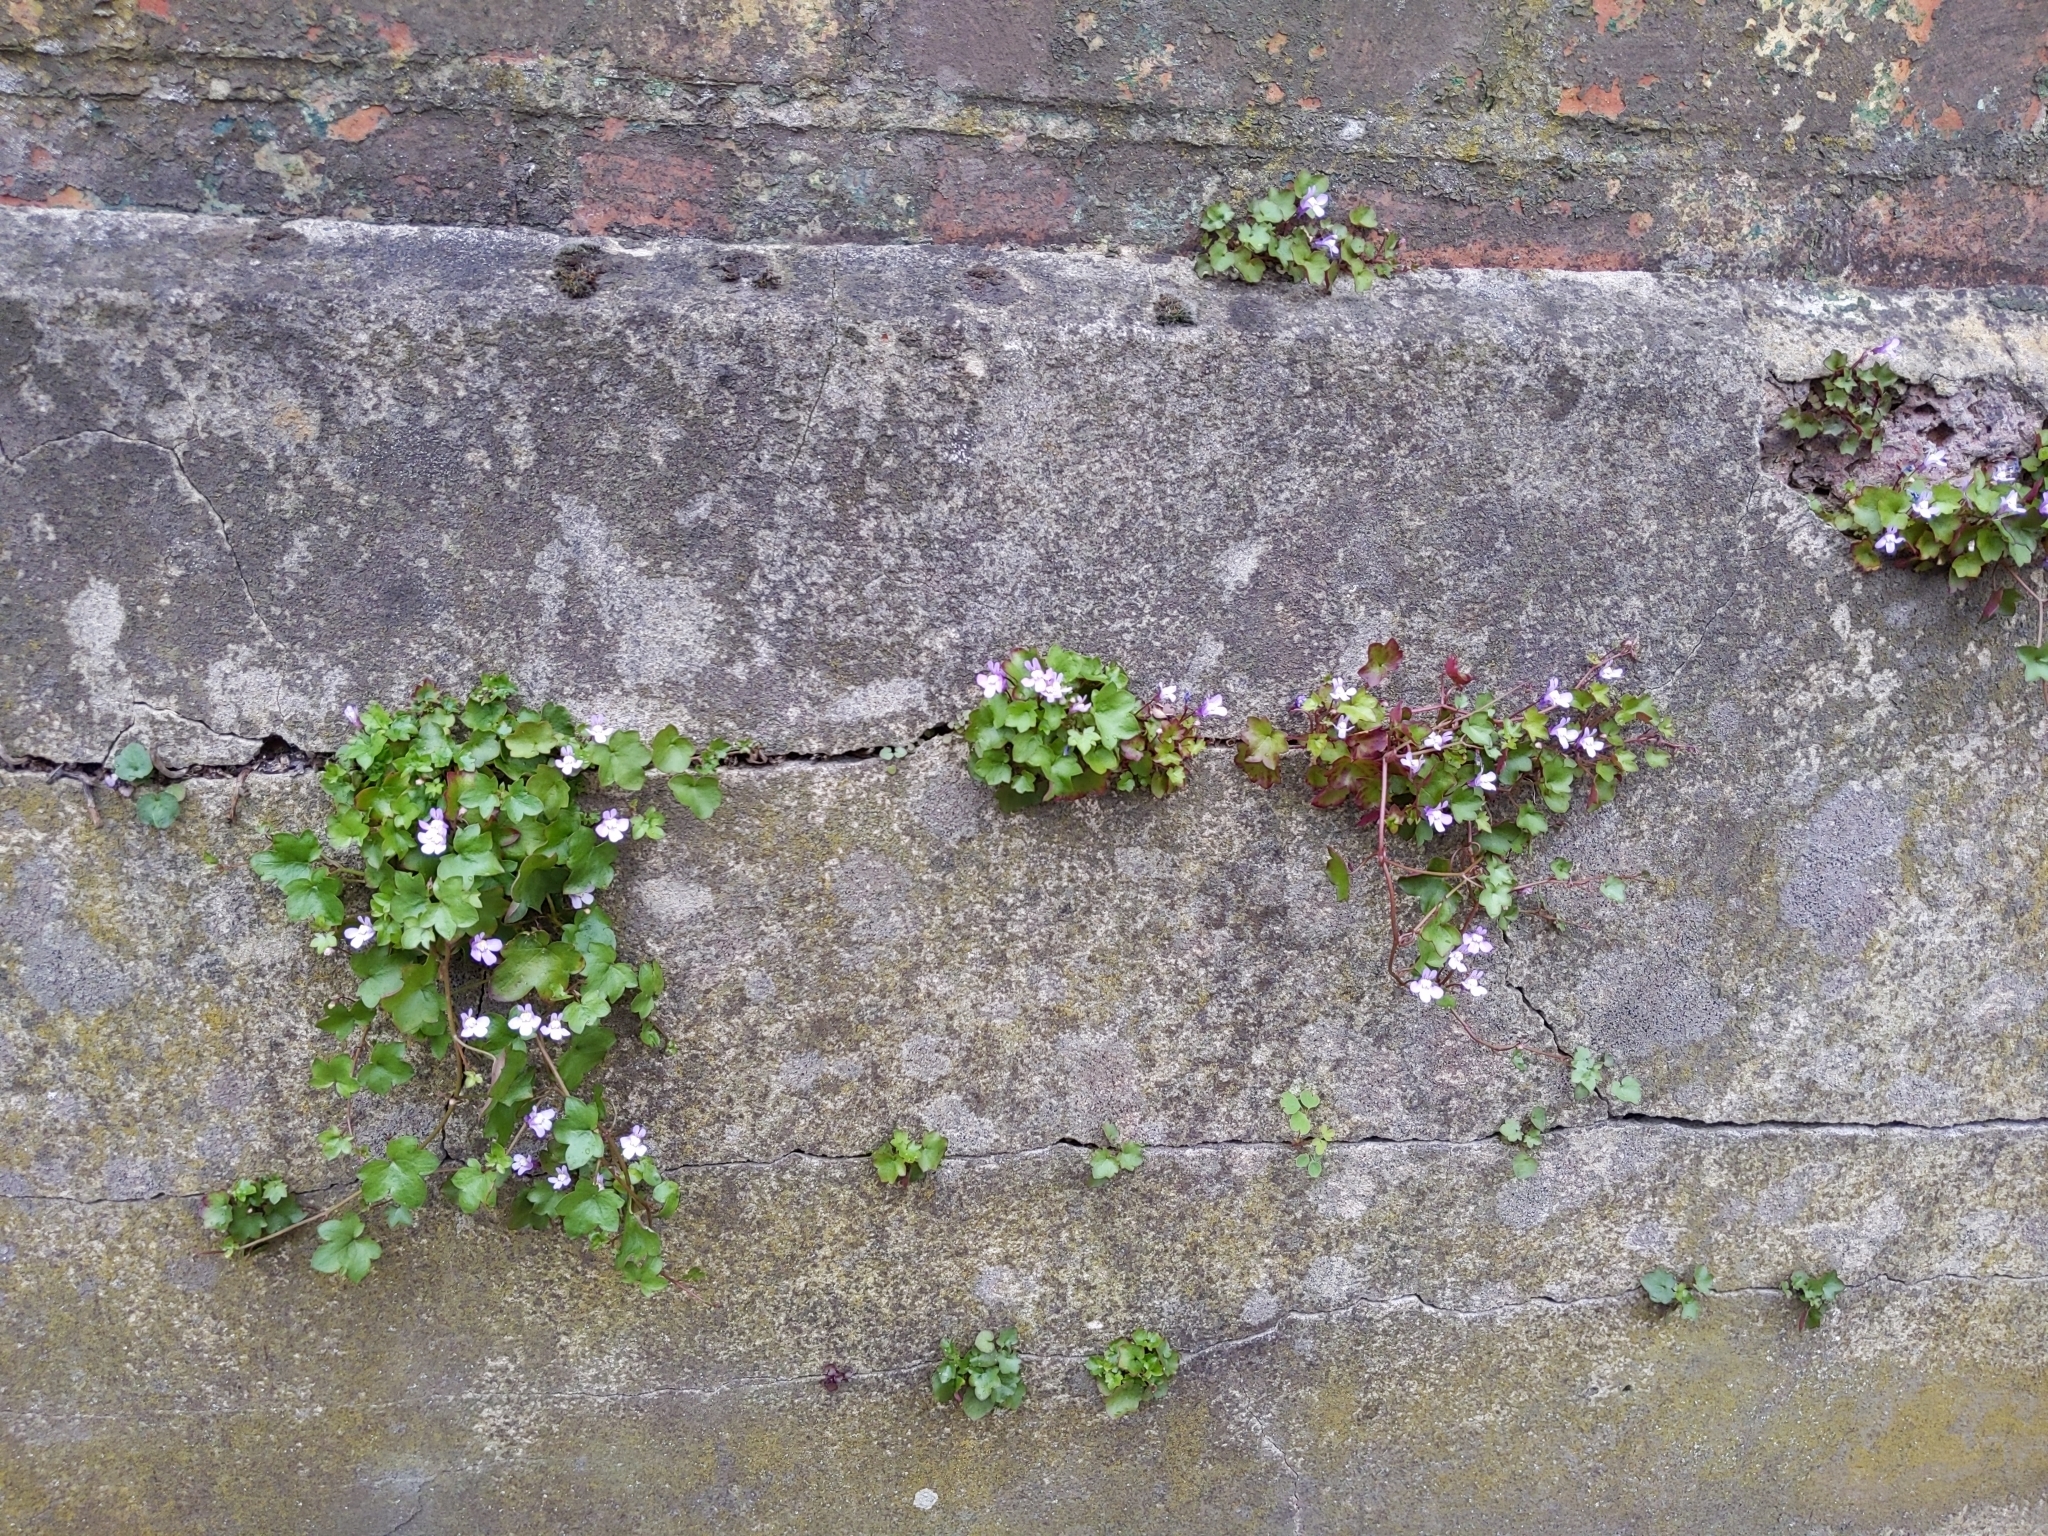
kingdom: Plantae
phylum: Tracheophyta
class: Magnoliopsida
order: Lamiales
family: Plantaginaceae
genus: Cymbalaria
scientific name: Cymbalaria muralis
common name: Ivy-leaved toadflax
